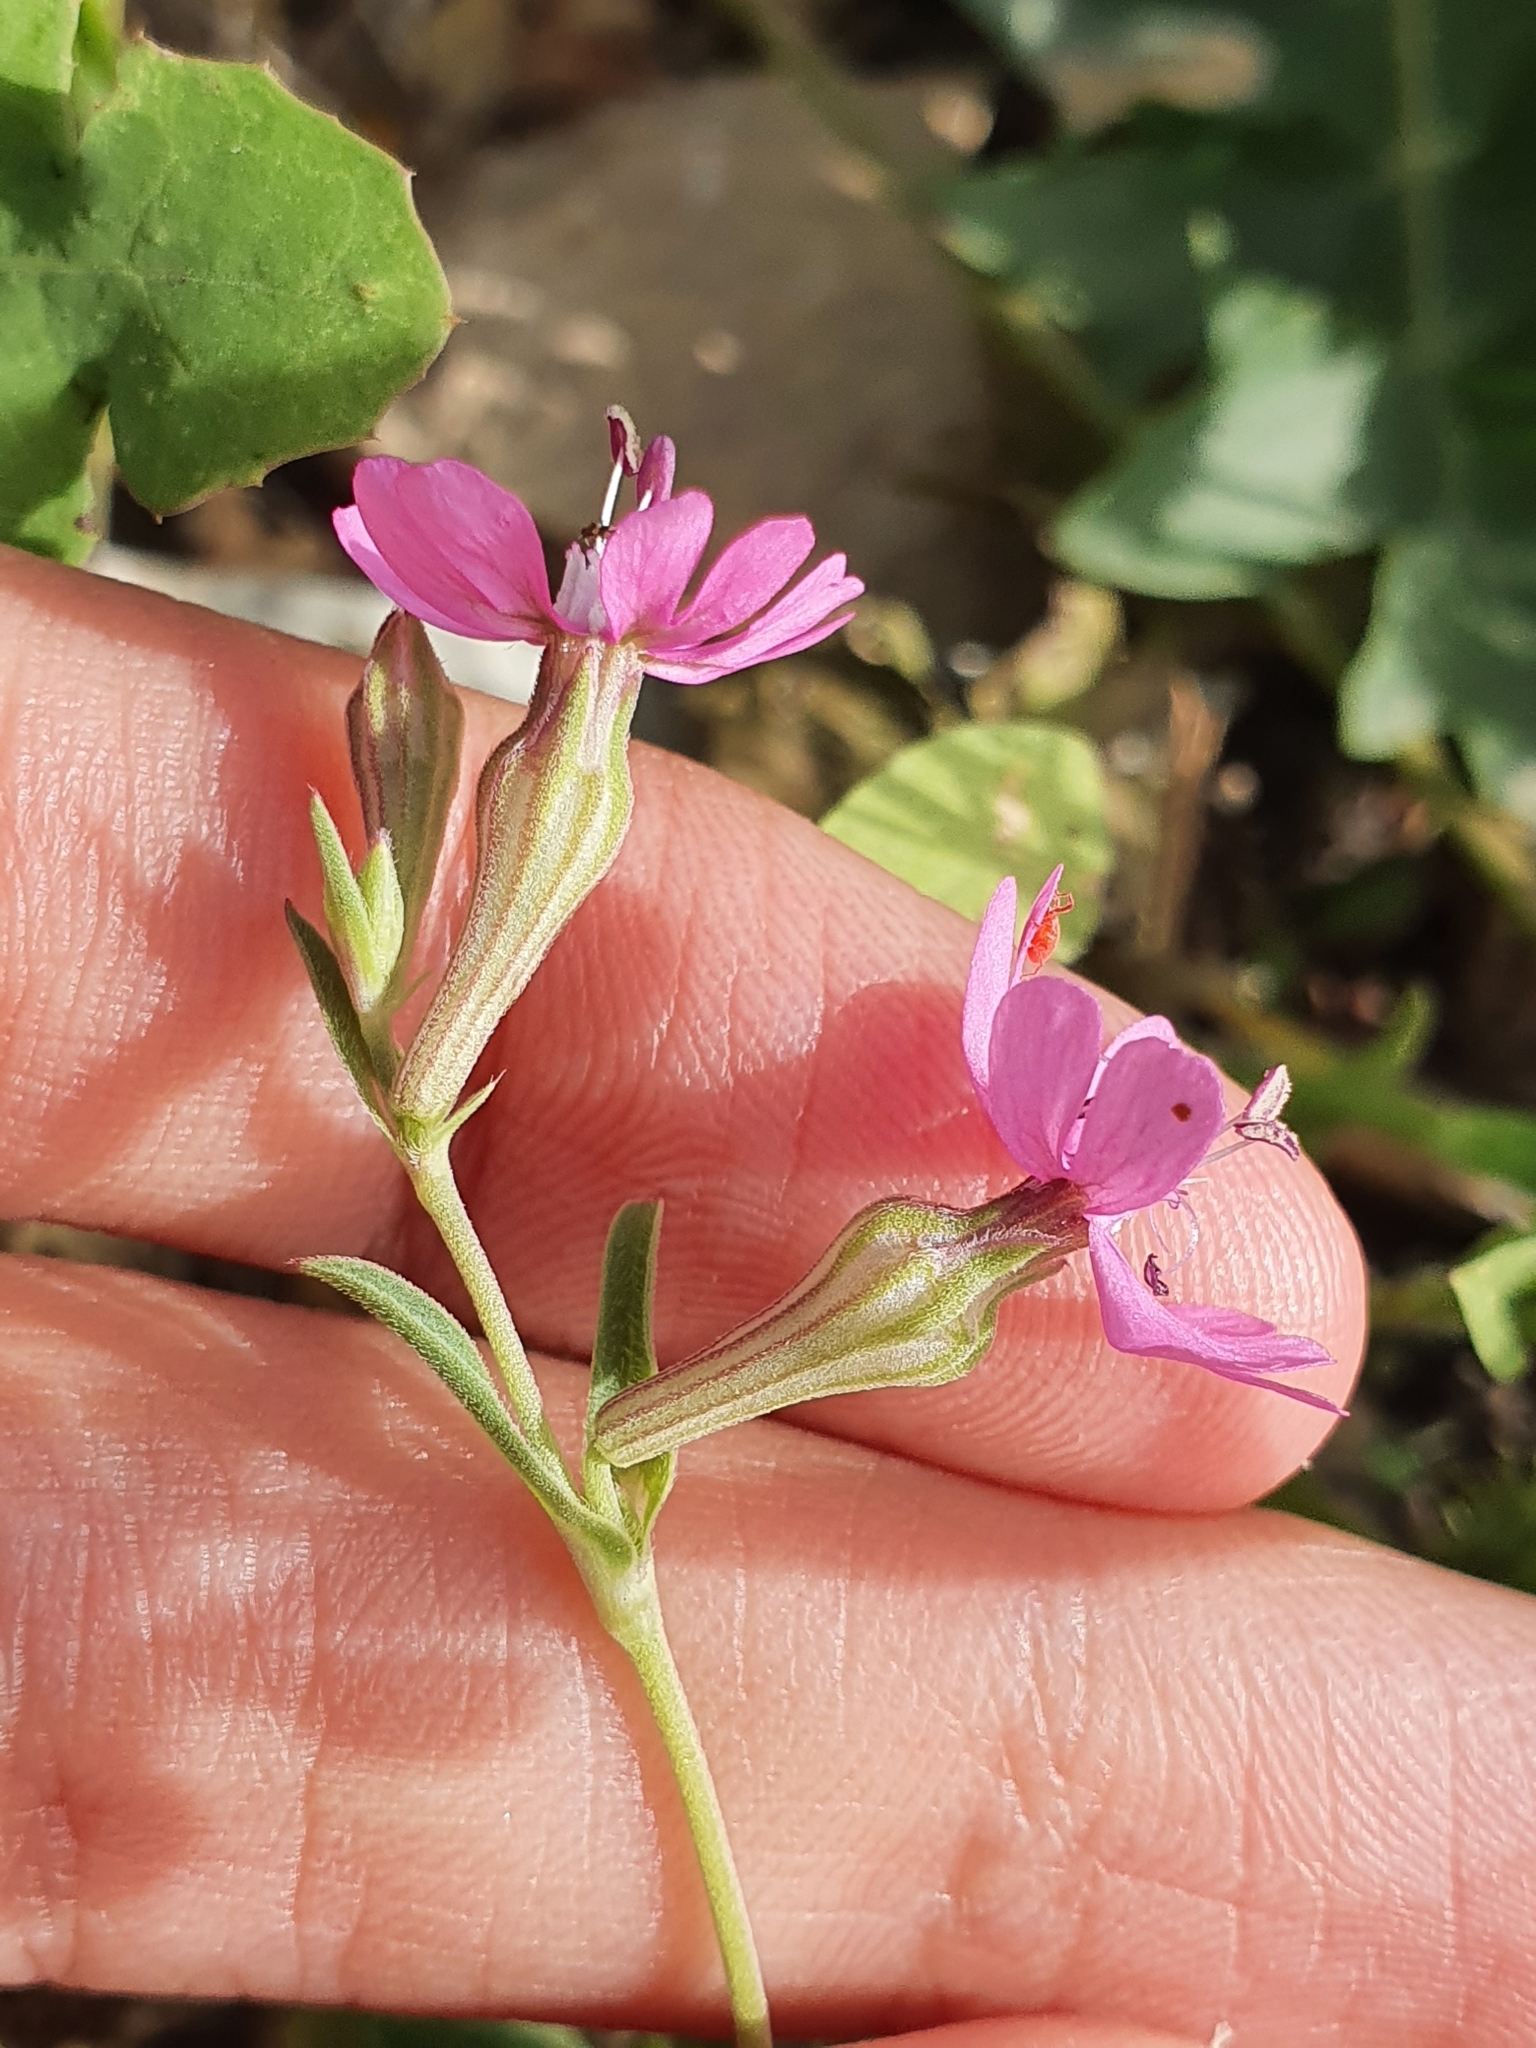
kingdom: Plantae
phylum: Tracheophyta
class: Magnoliopsida
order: Caryophyllales
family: Caryophyllaceae
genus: Silene
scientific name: Silene colorata
